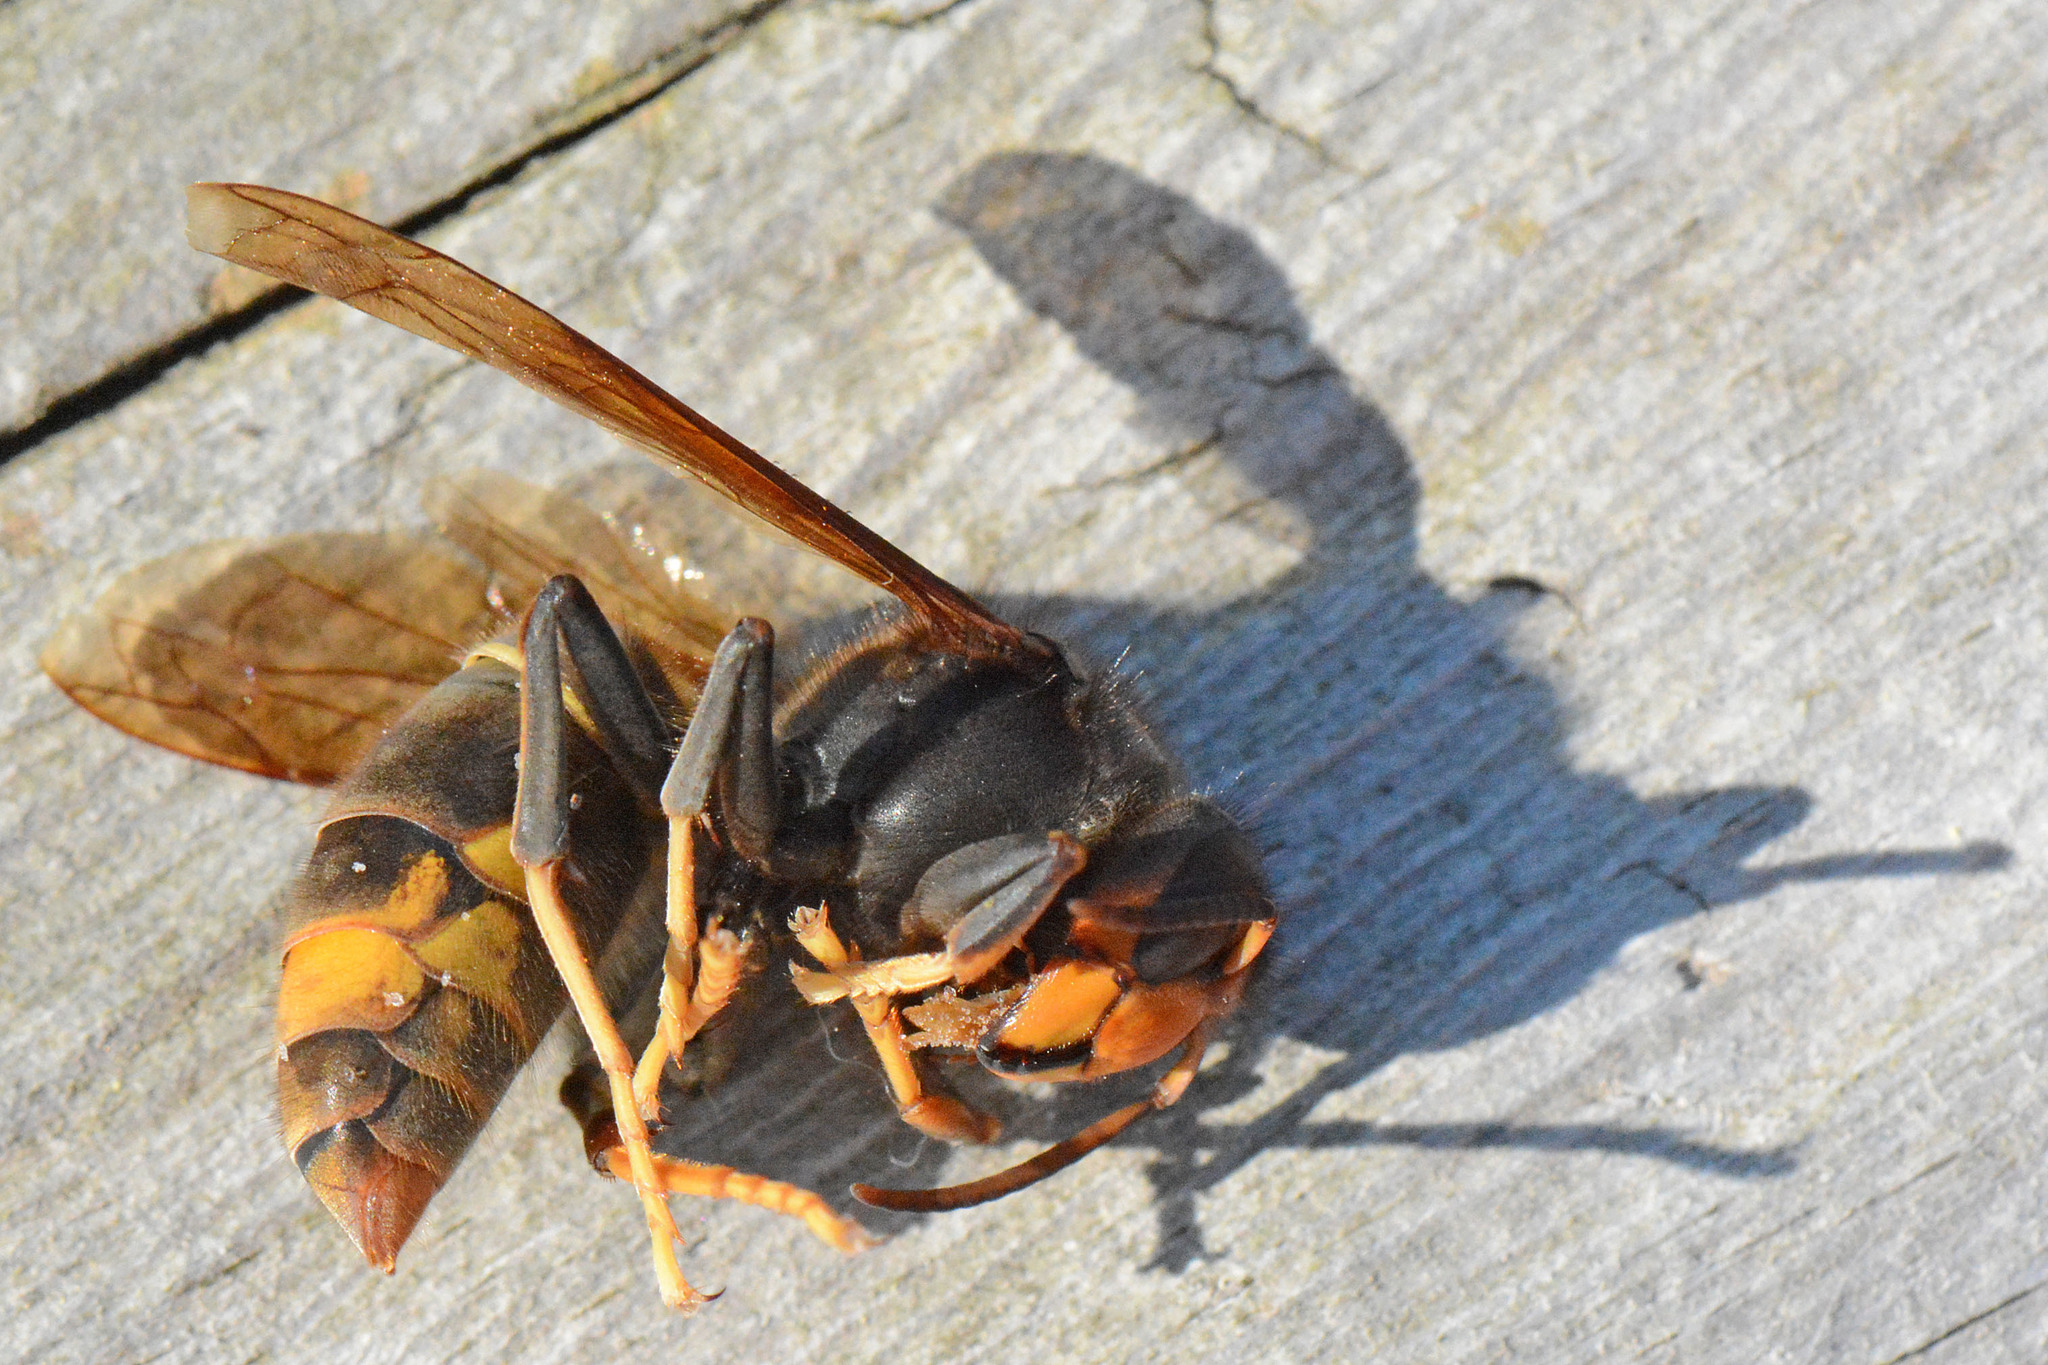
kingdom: Animalia
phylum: Arthropoda
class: Insecta
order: Hymenoptera
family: Vespidae
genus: Vespa
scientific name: Vespa velutina
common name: Asian hornet
